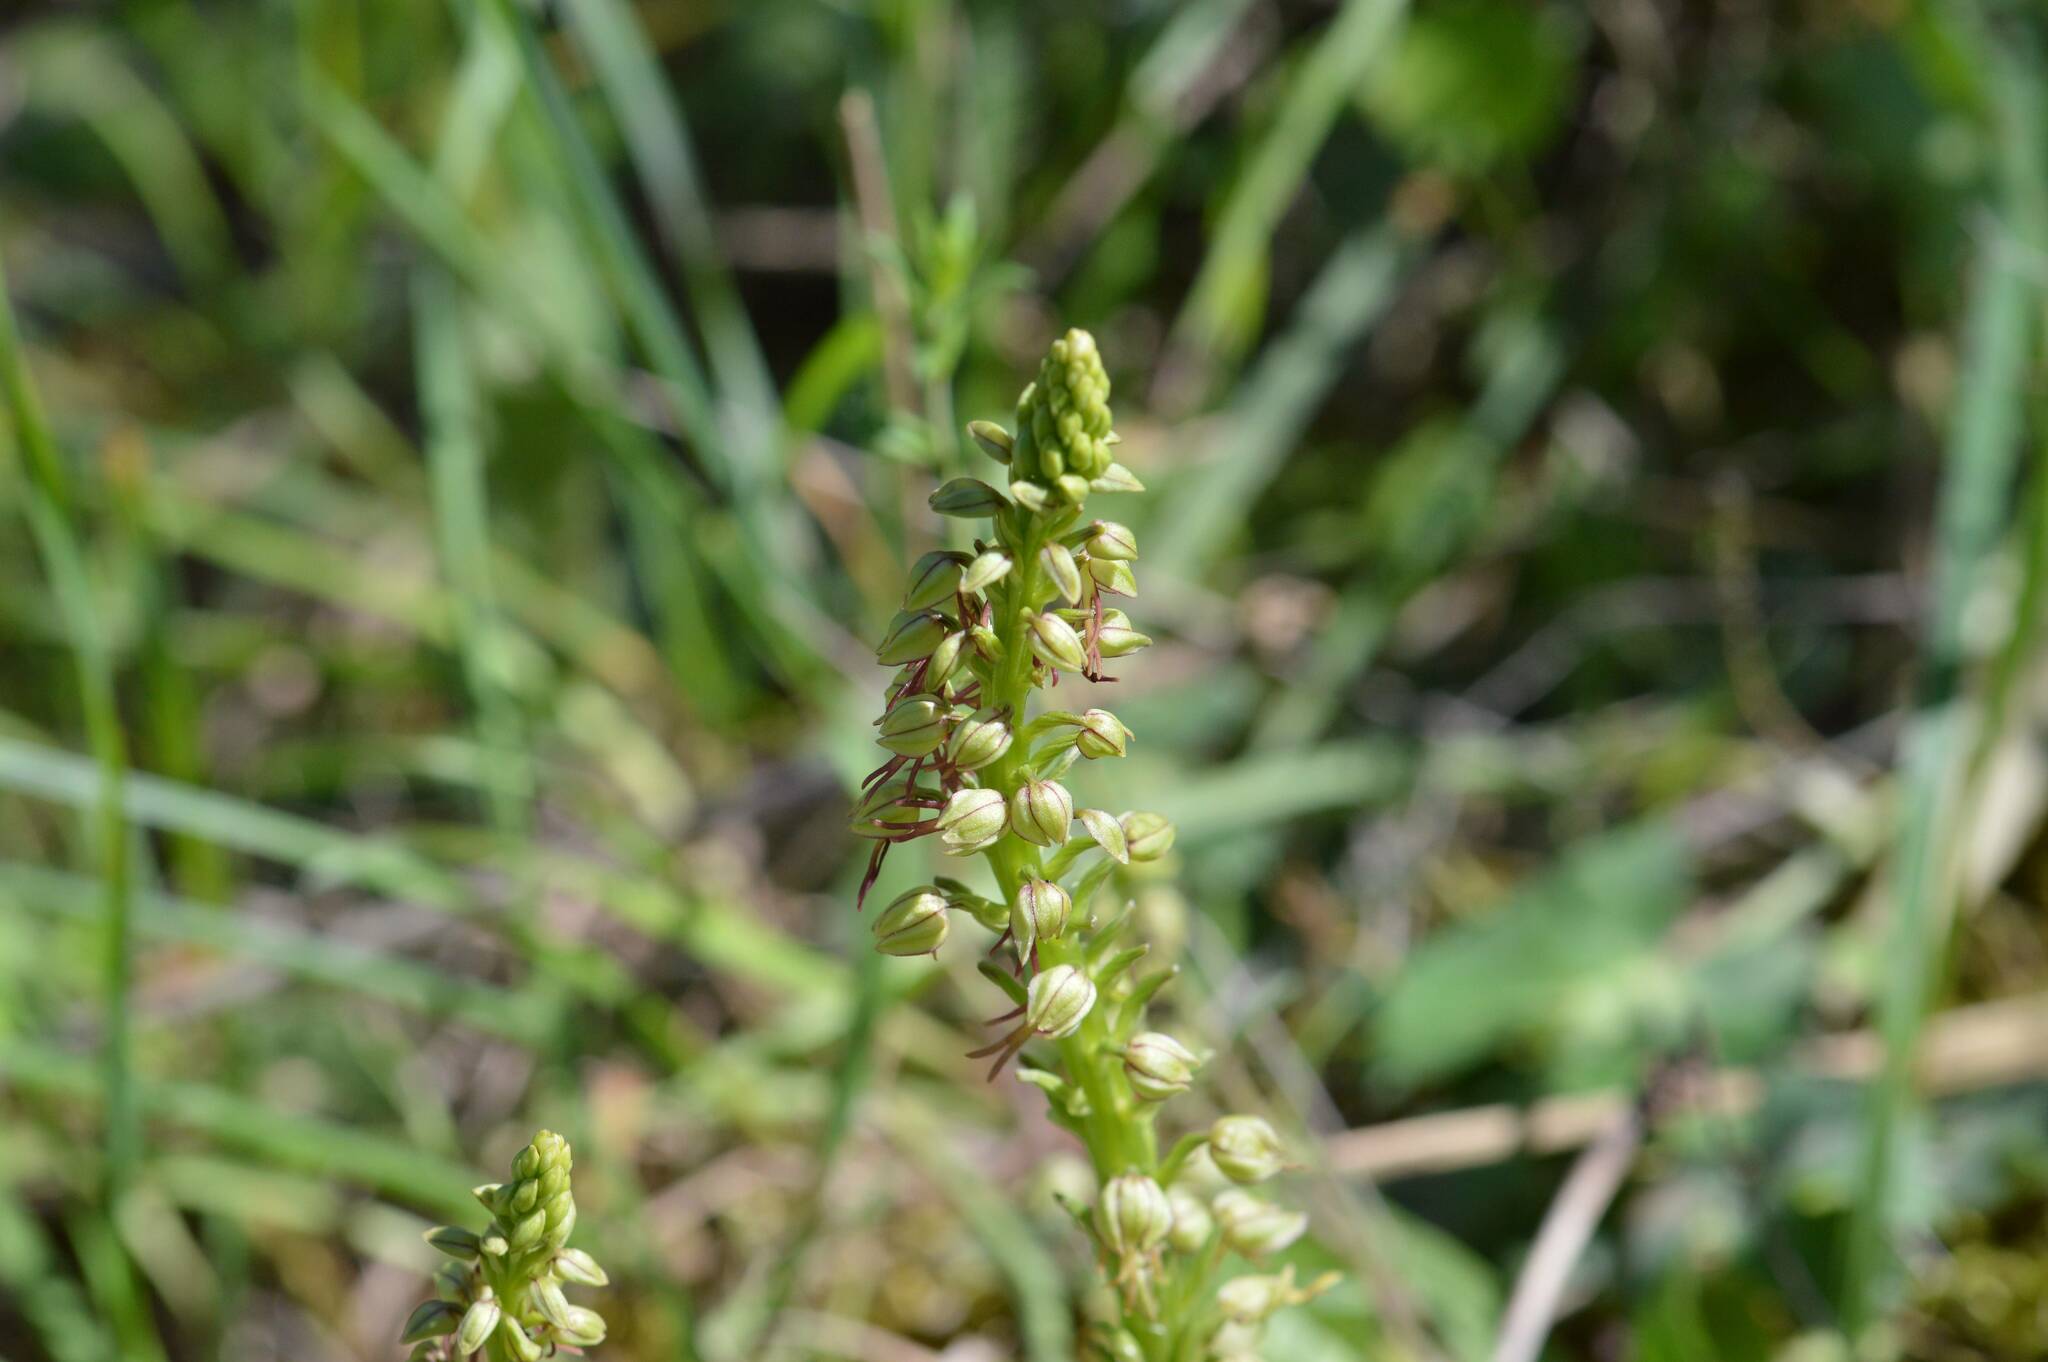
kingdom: Plantae
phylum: Tracheophyta
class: Liliopsida
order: Asparagales
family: Orchidaceae
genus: Orchis
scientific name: Orchis anthropophora
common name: Man orchid
